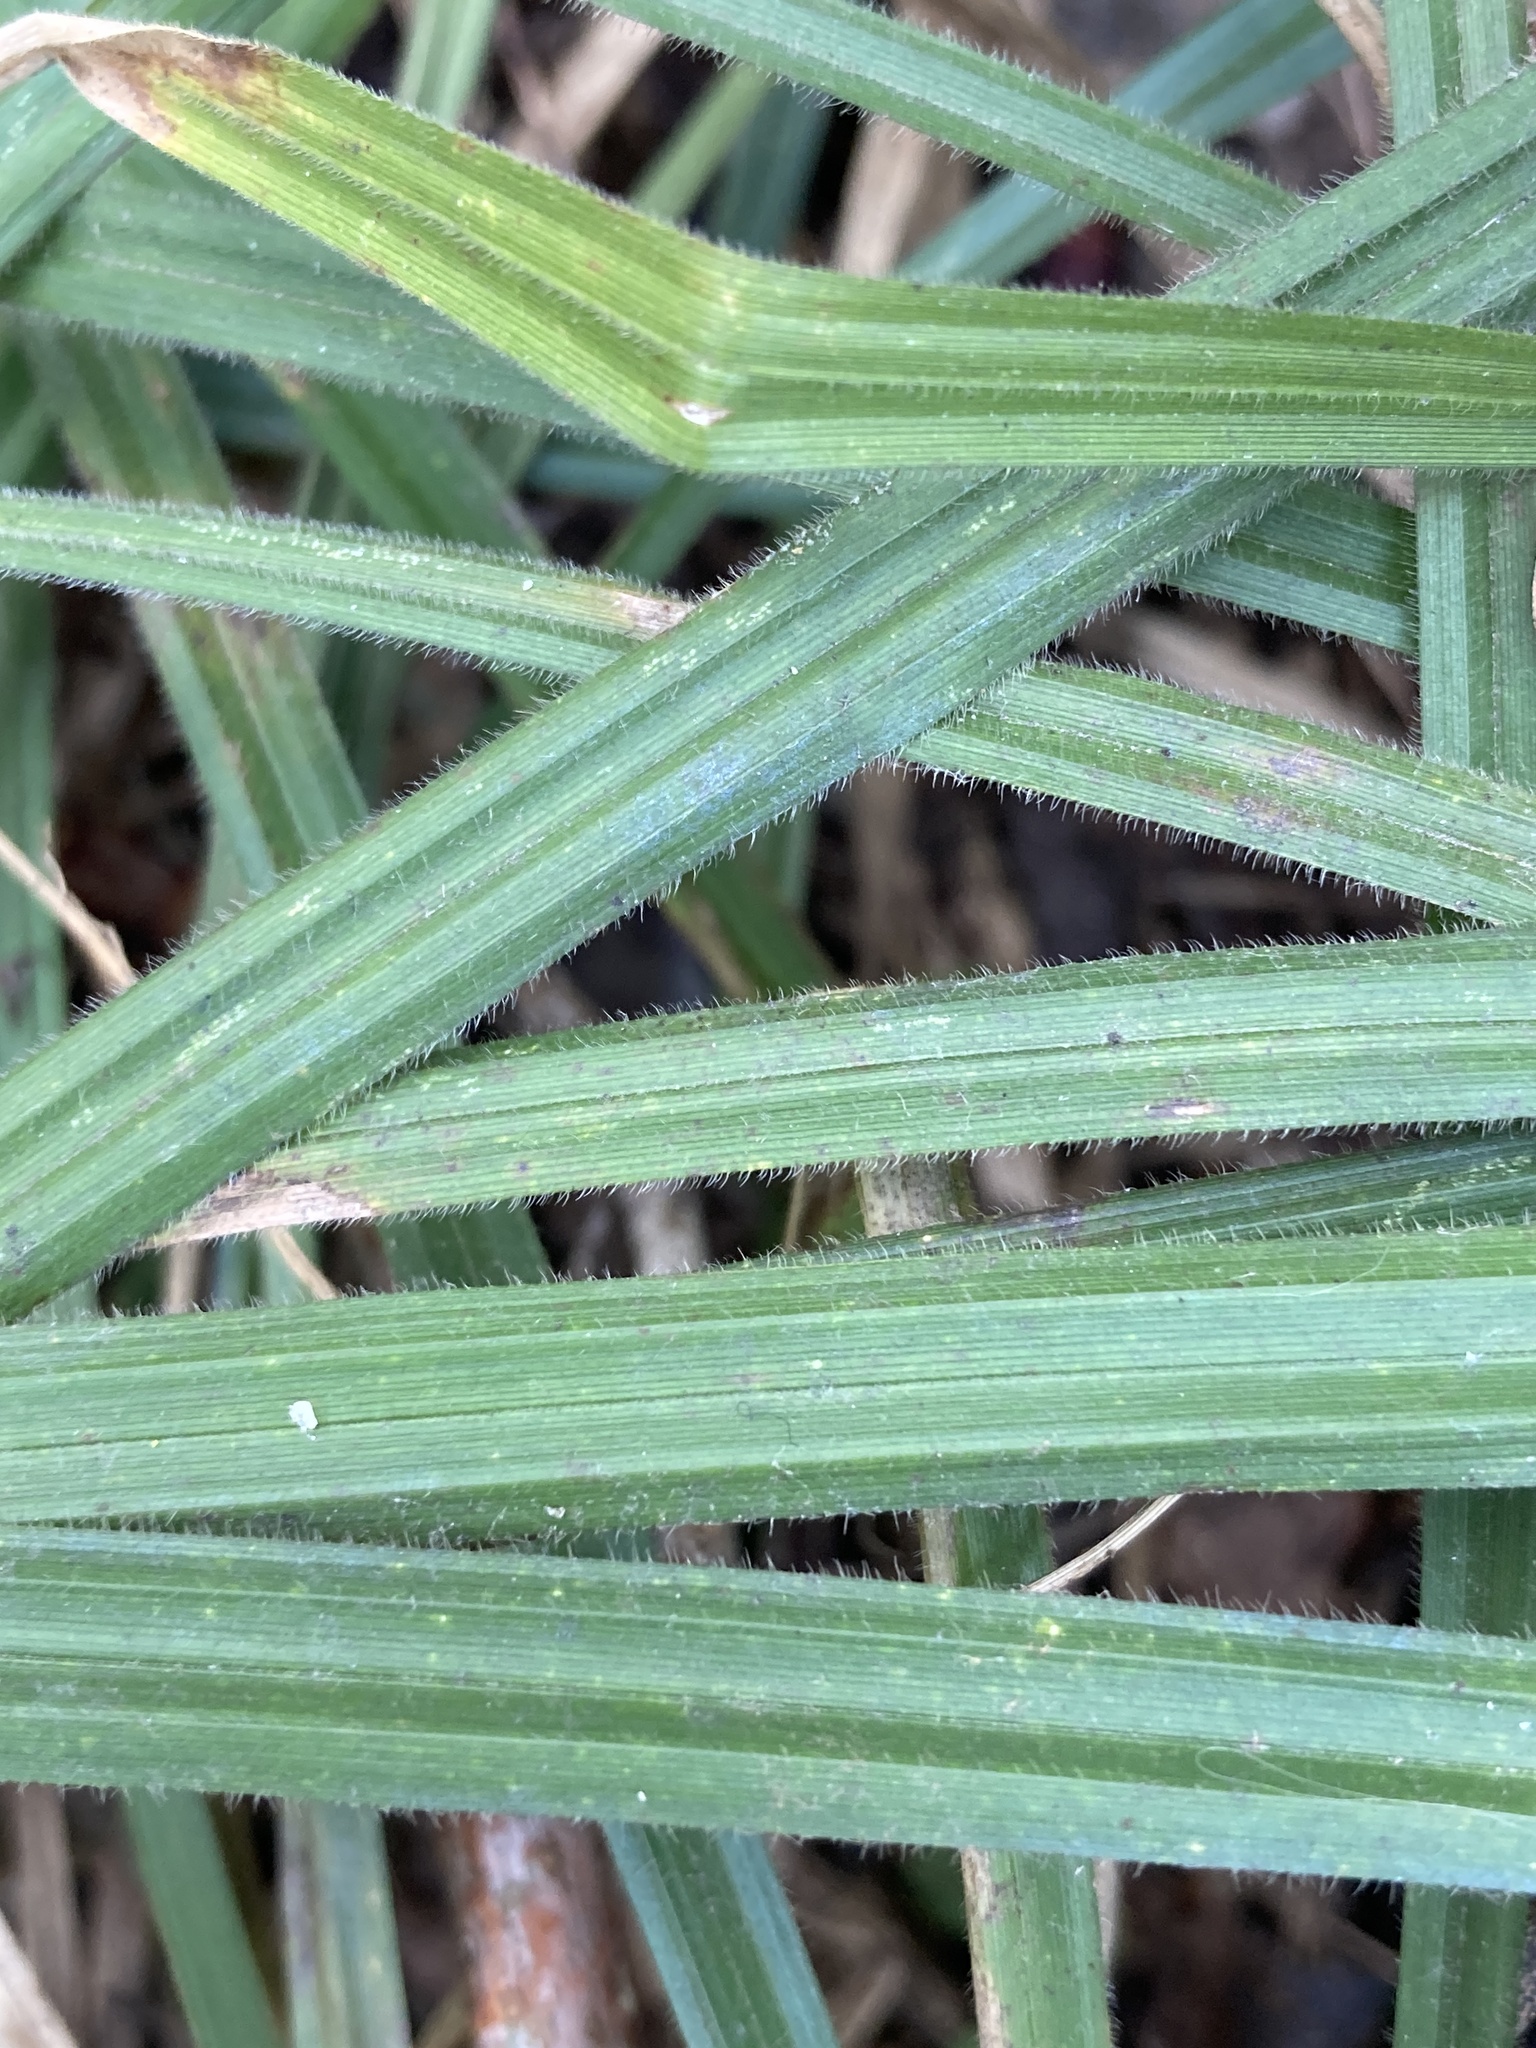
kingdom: Plantae
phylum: Tracheophyta
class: Liliopsida
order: Poales
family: Cyperaceae
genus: Carex
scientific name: Carex pilosa
